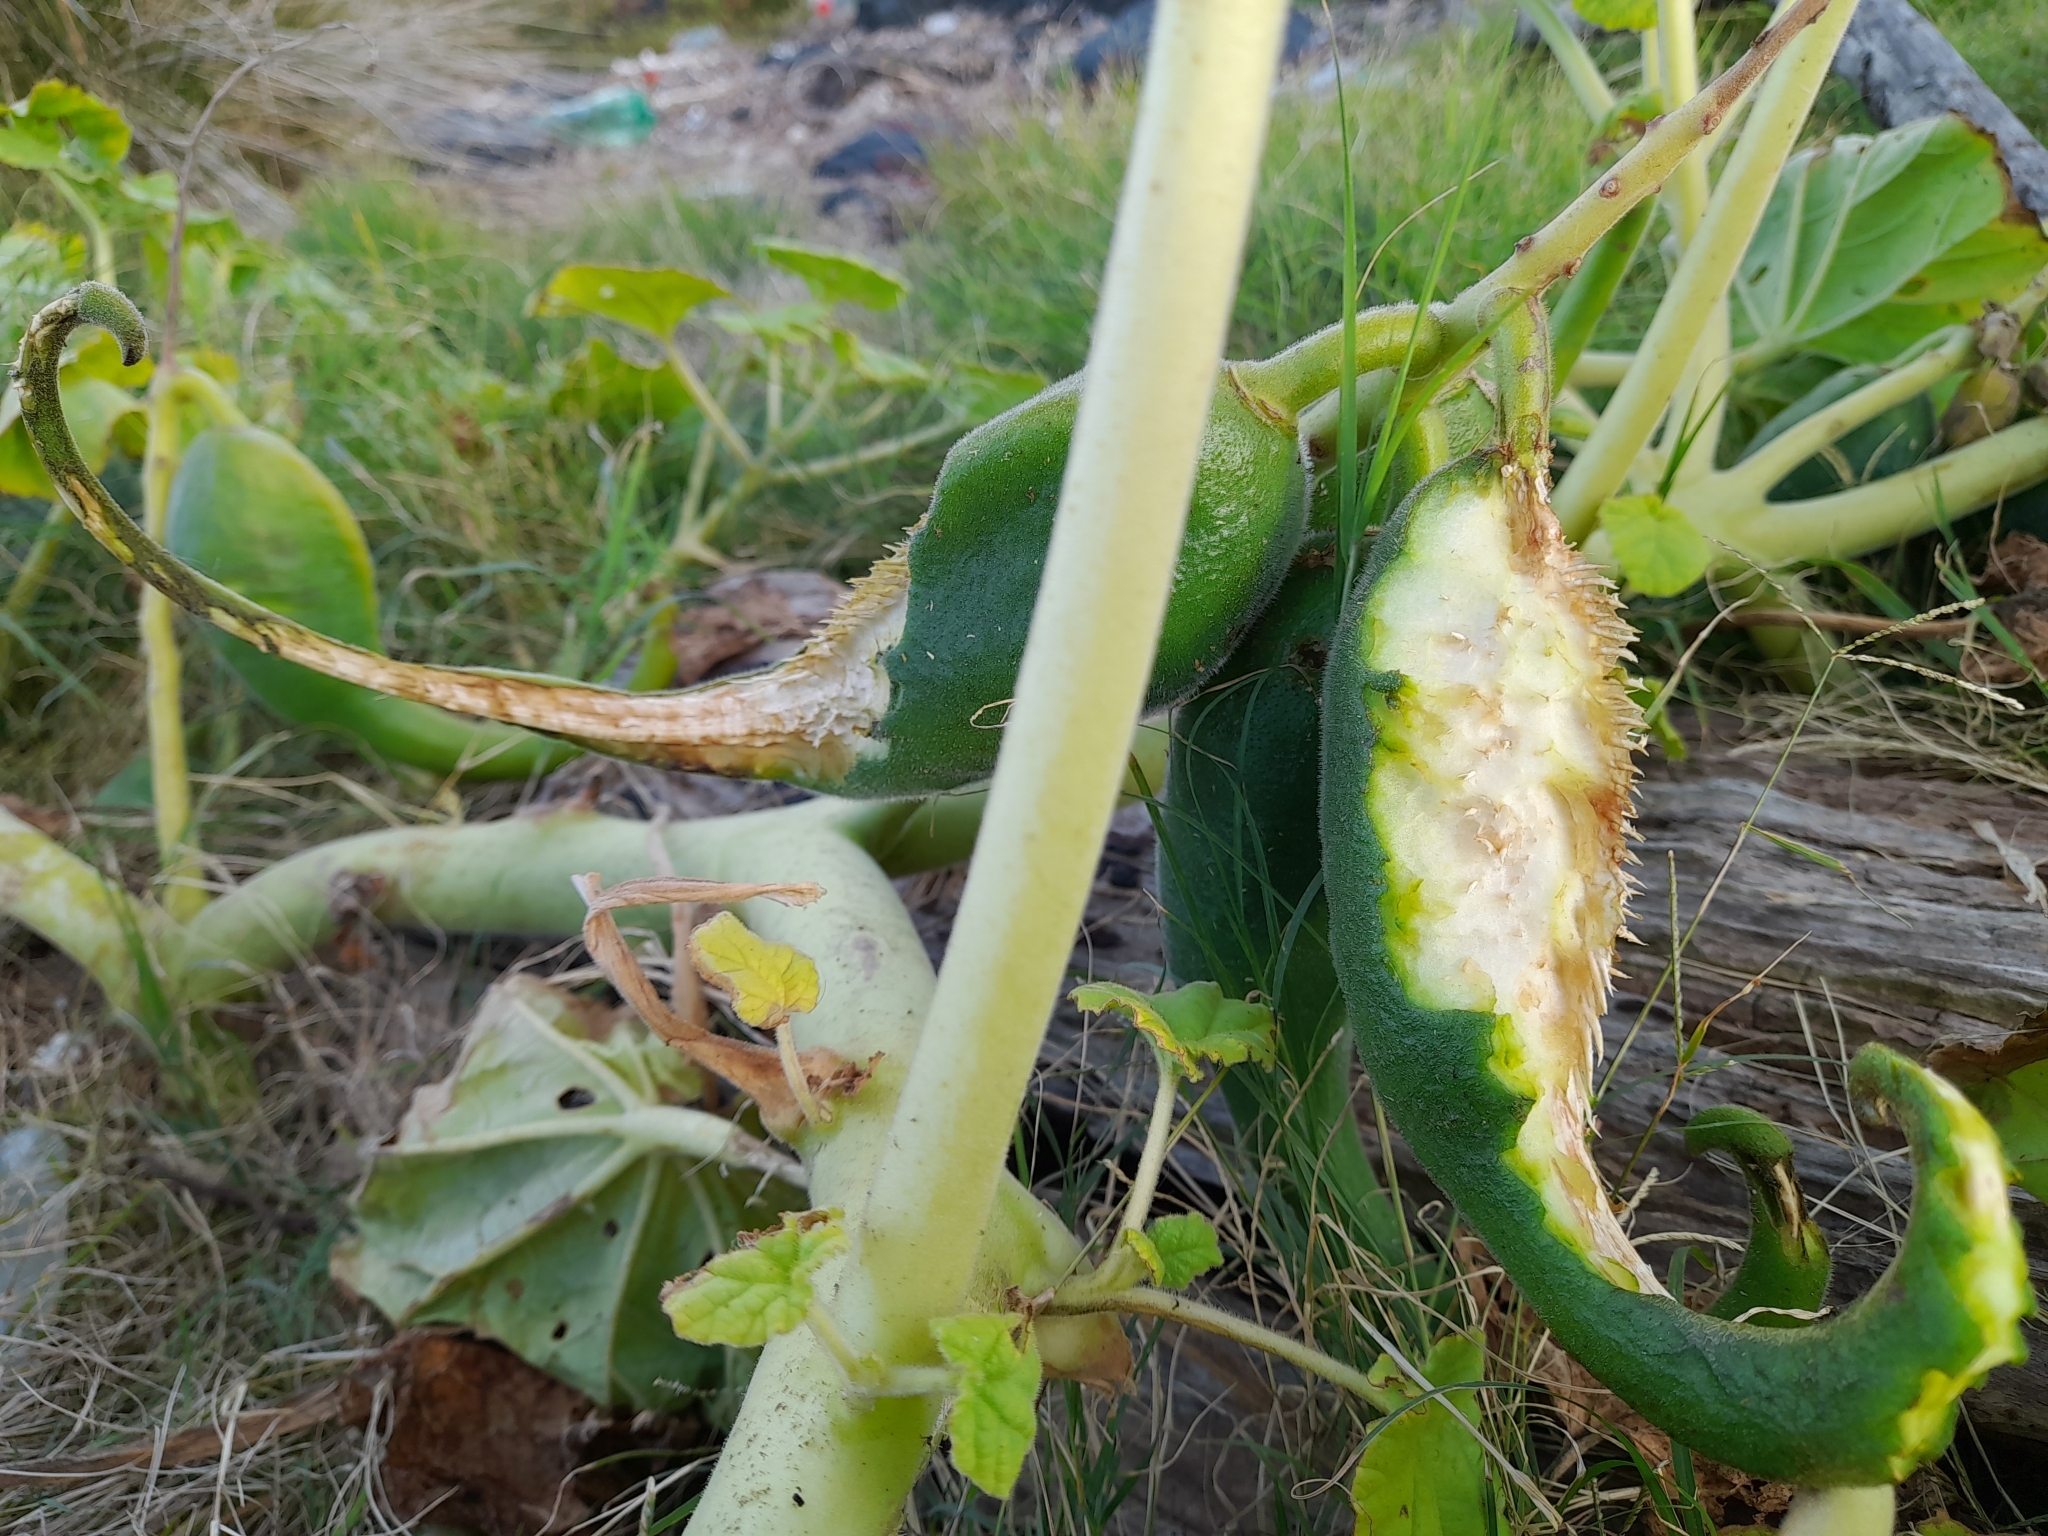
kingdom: Plantae
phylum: Tracheophyta
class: Magnoliopsida
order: Lamiales
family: Martyniaceae
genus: Ibicella
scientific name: Ibicella lutea
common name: Yellow unicorn-plant
